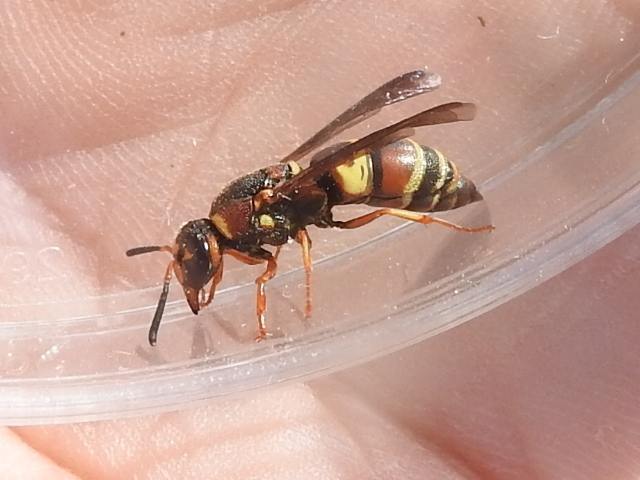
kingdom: Animalia
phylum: Arthropoda
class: Insecta
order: Hymenoptera
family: Eumenidae
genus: Euodynerus
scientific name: Euodynerus hidalgo
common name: Wasp
